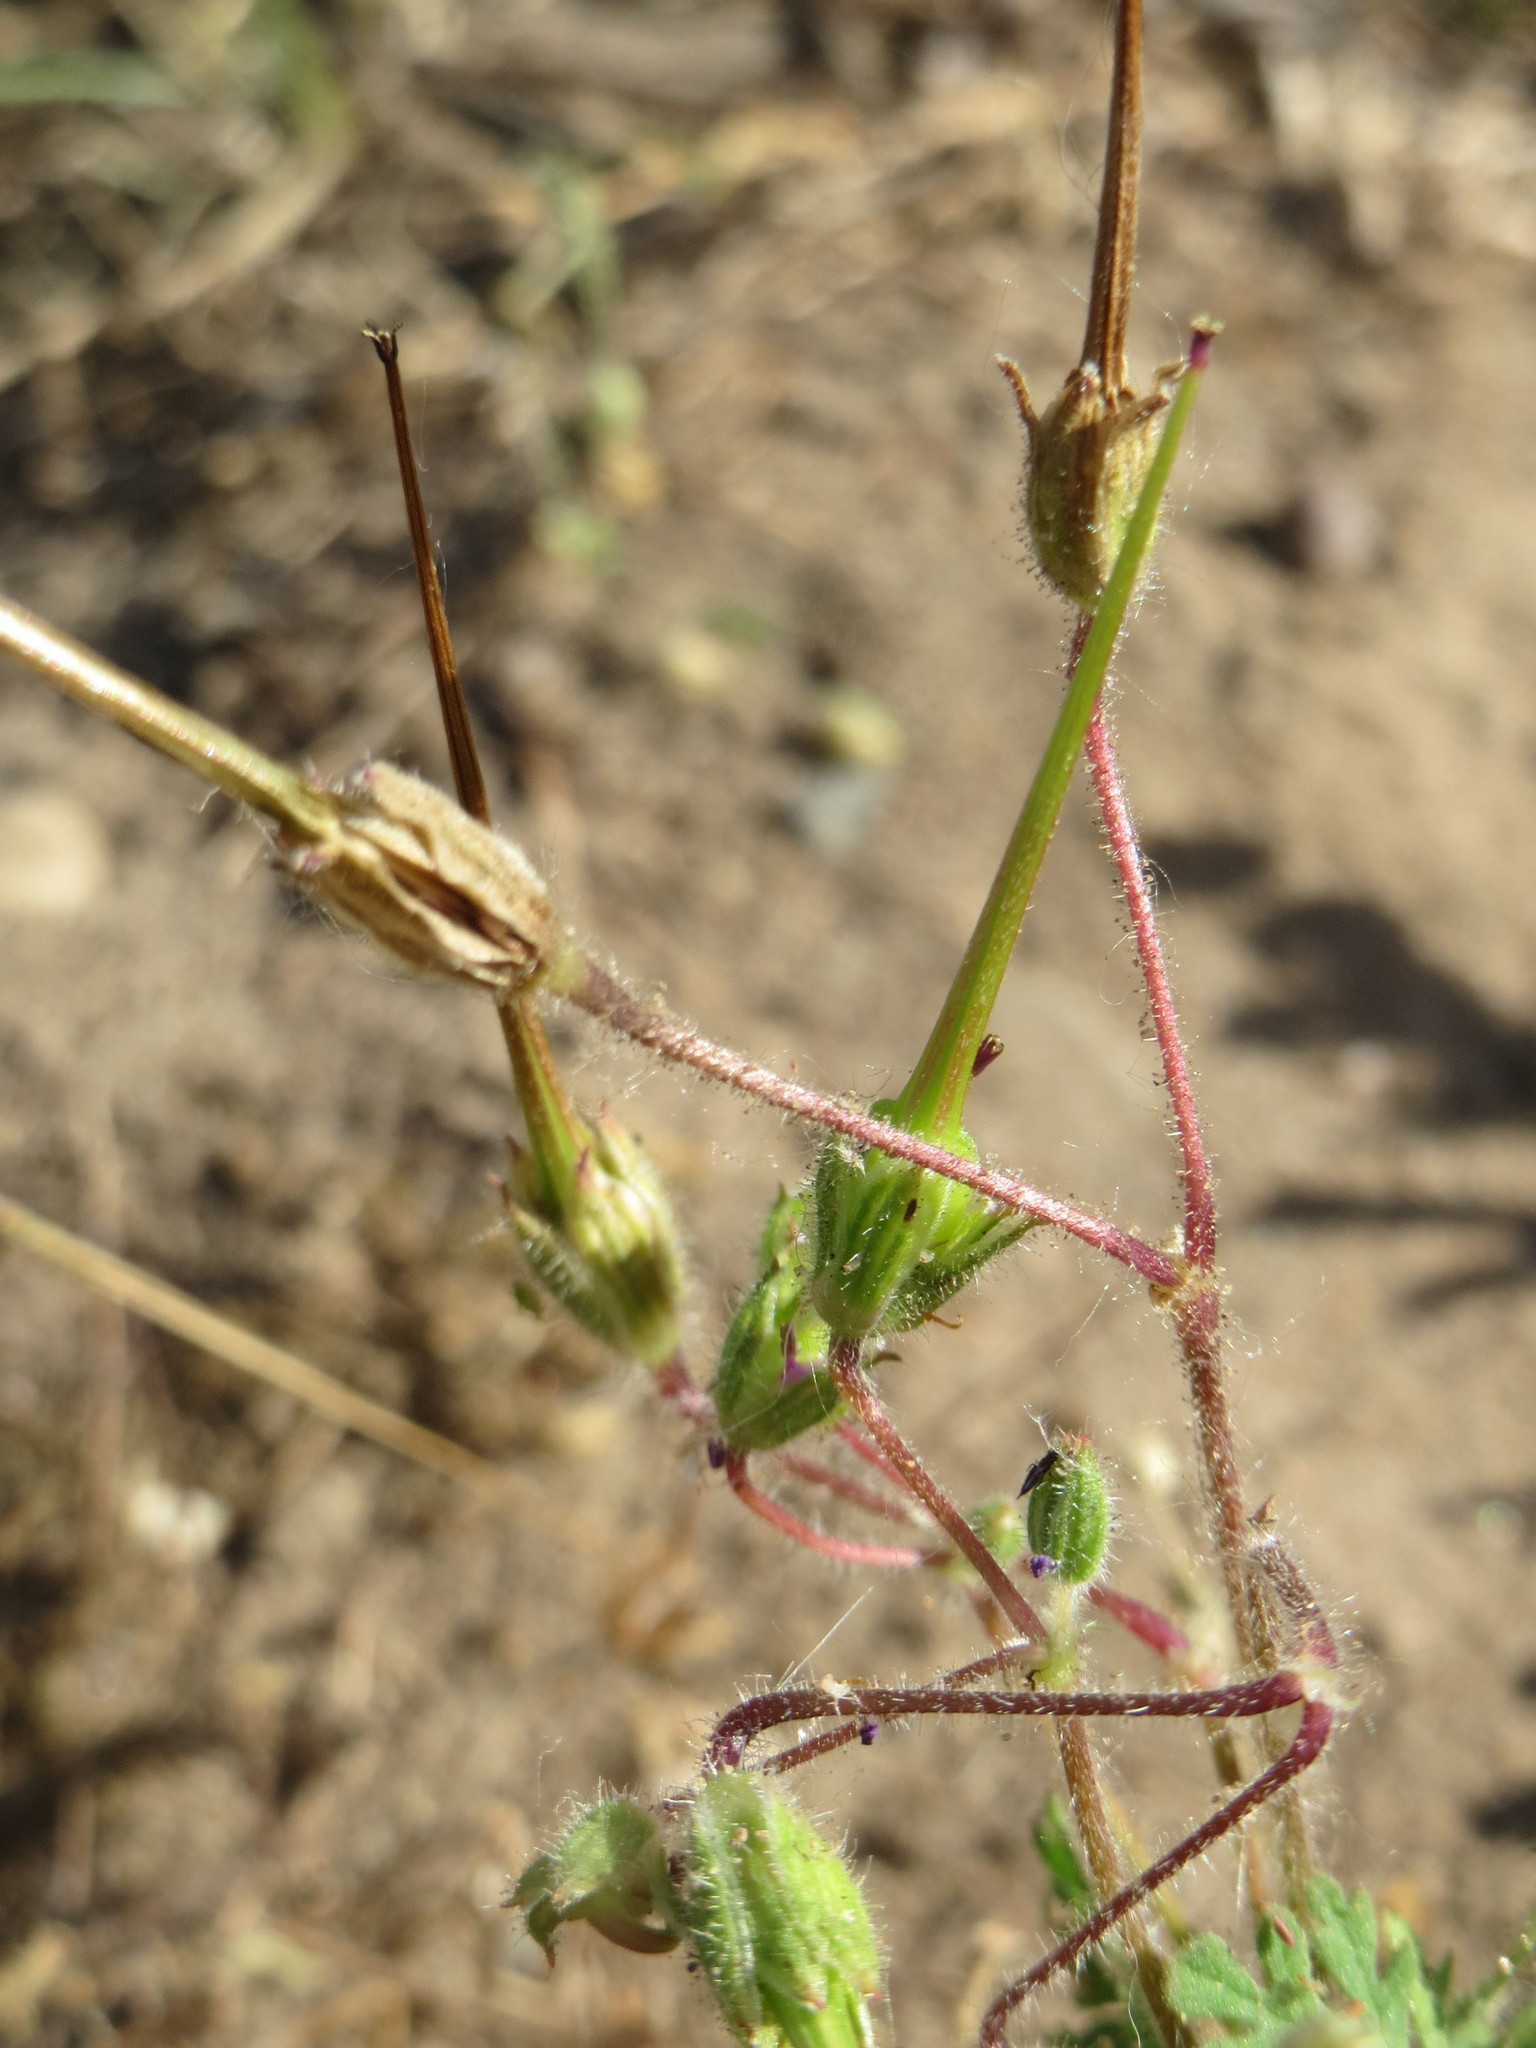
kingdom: Plantae
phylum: Tracheophyta
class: Magnoliopsida
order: Geraniales
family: Geraniaceae
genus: Erodium
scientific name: Erodium cicutarium
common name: Common stork's-bill
